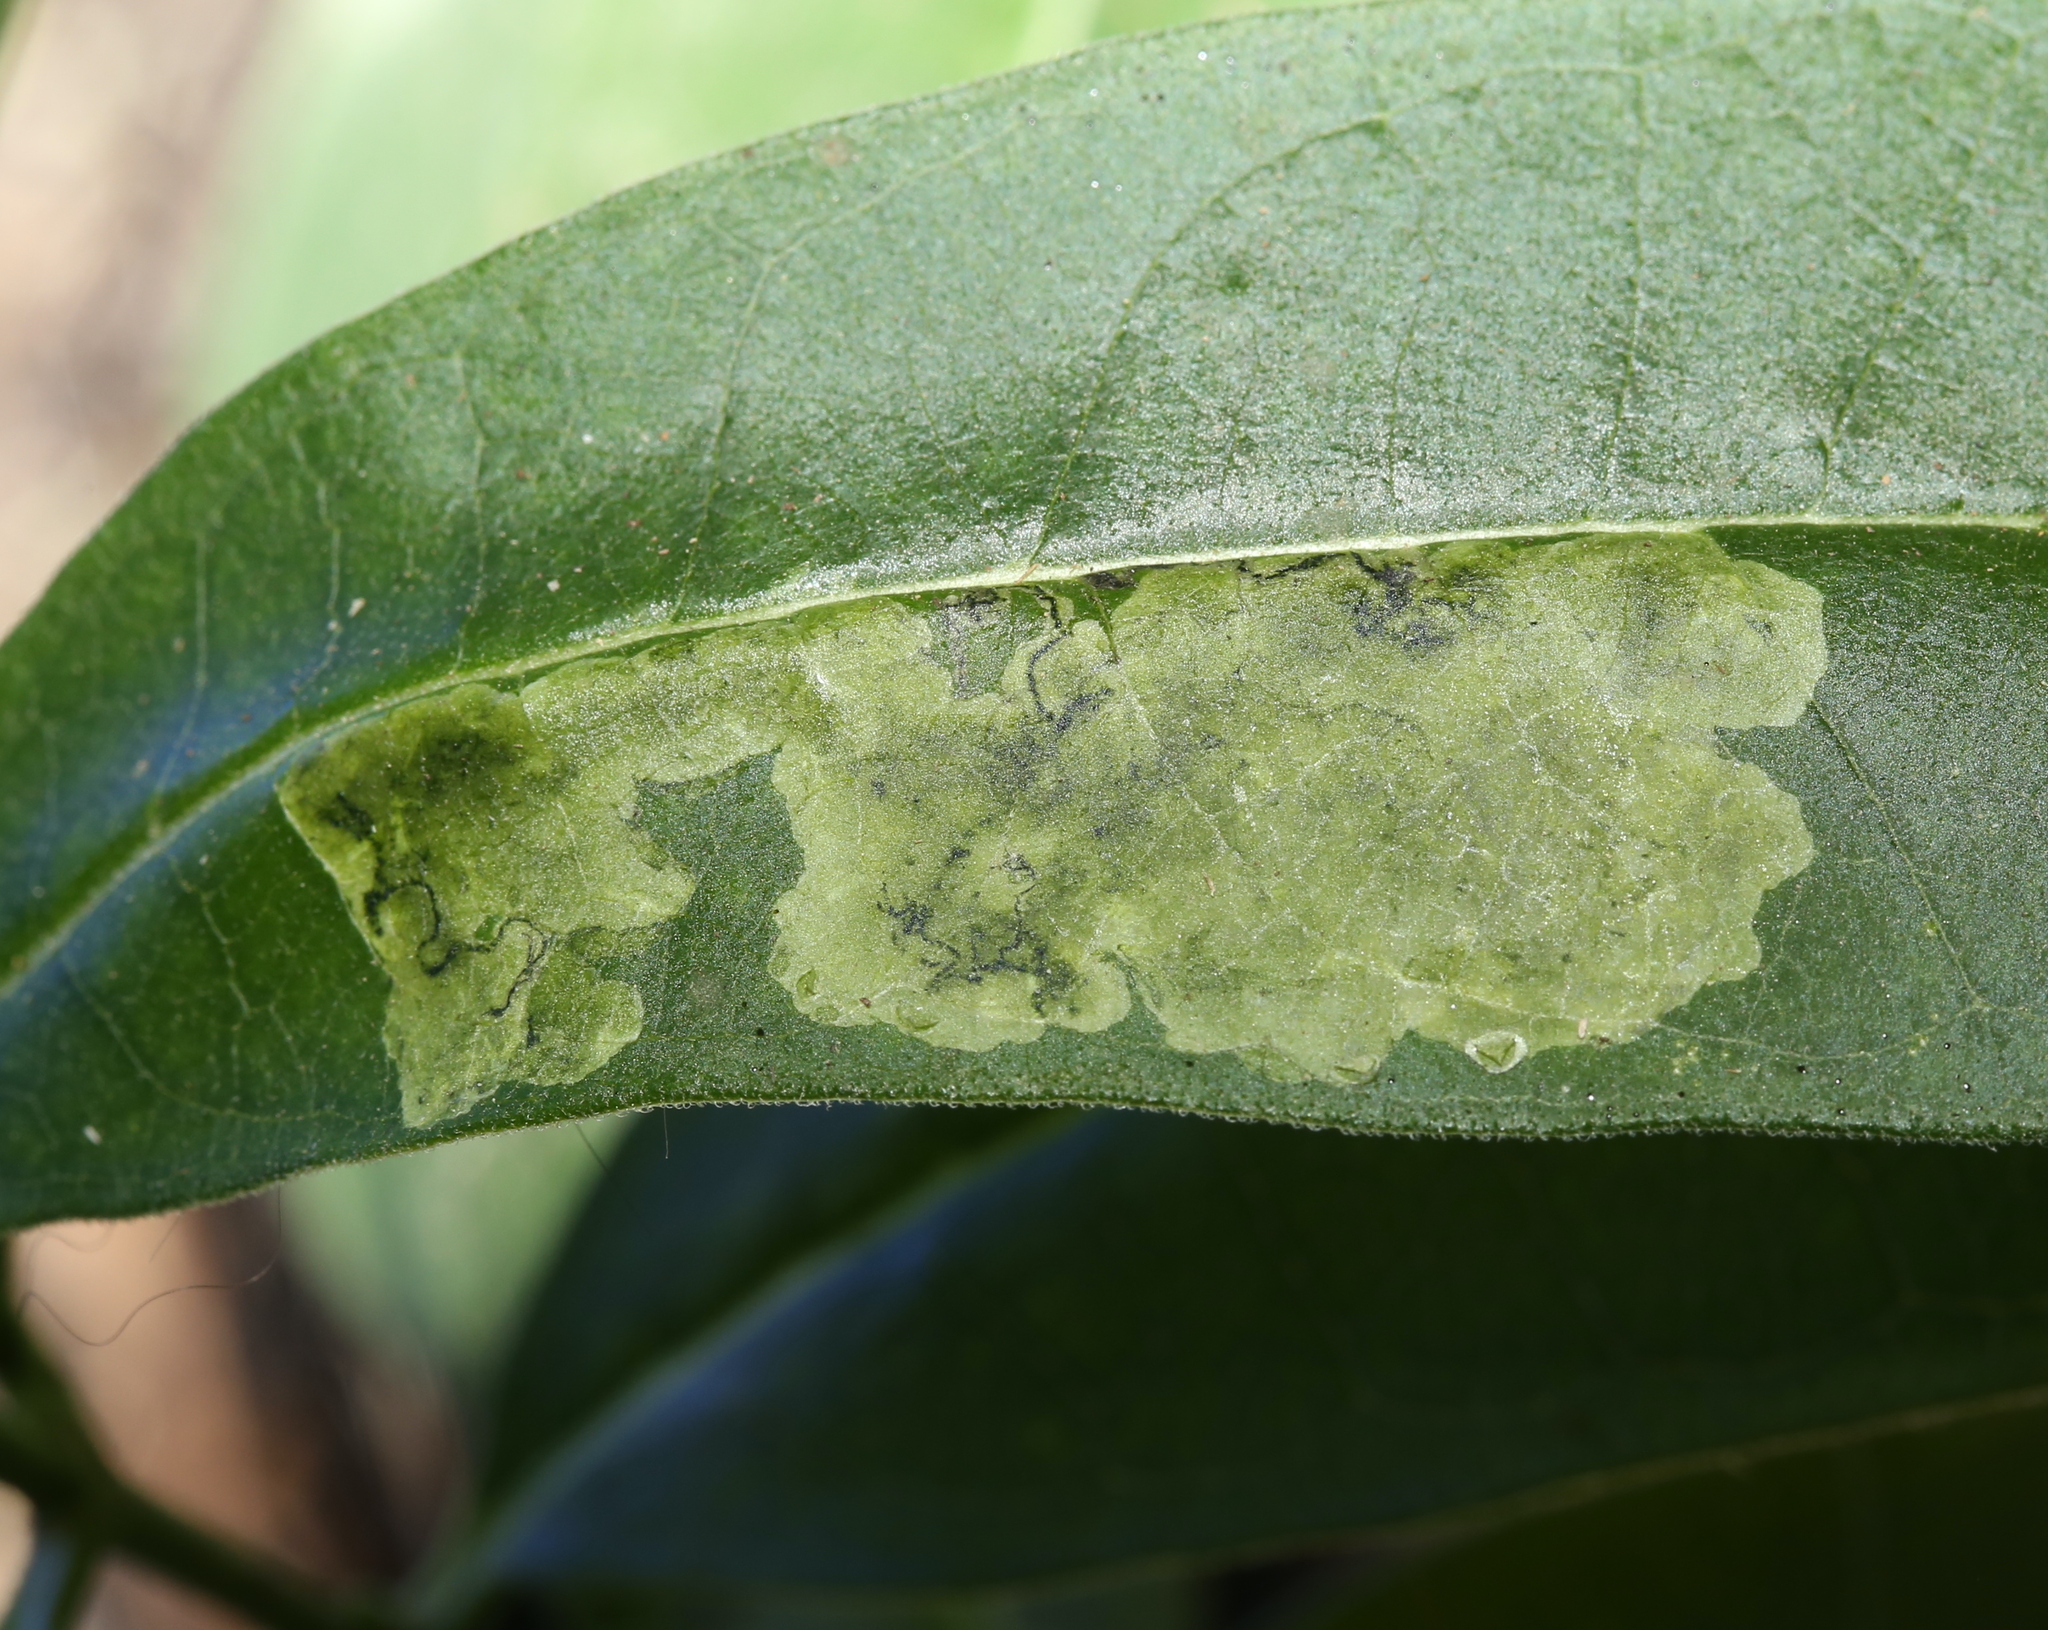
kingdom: Animalia
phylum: Arthropoda
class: Insecta
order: Diptera
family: Agromyzidae
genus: Liriomyza
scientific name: Liriomyza asclepiadis
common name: Milkweed leaf-miner fly
